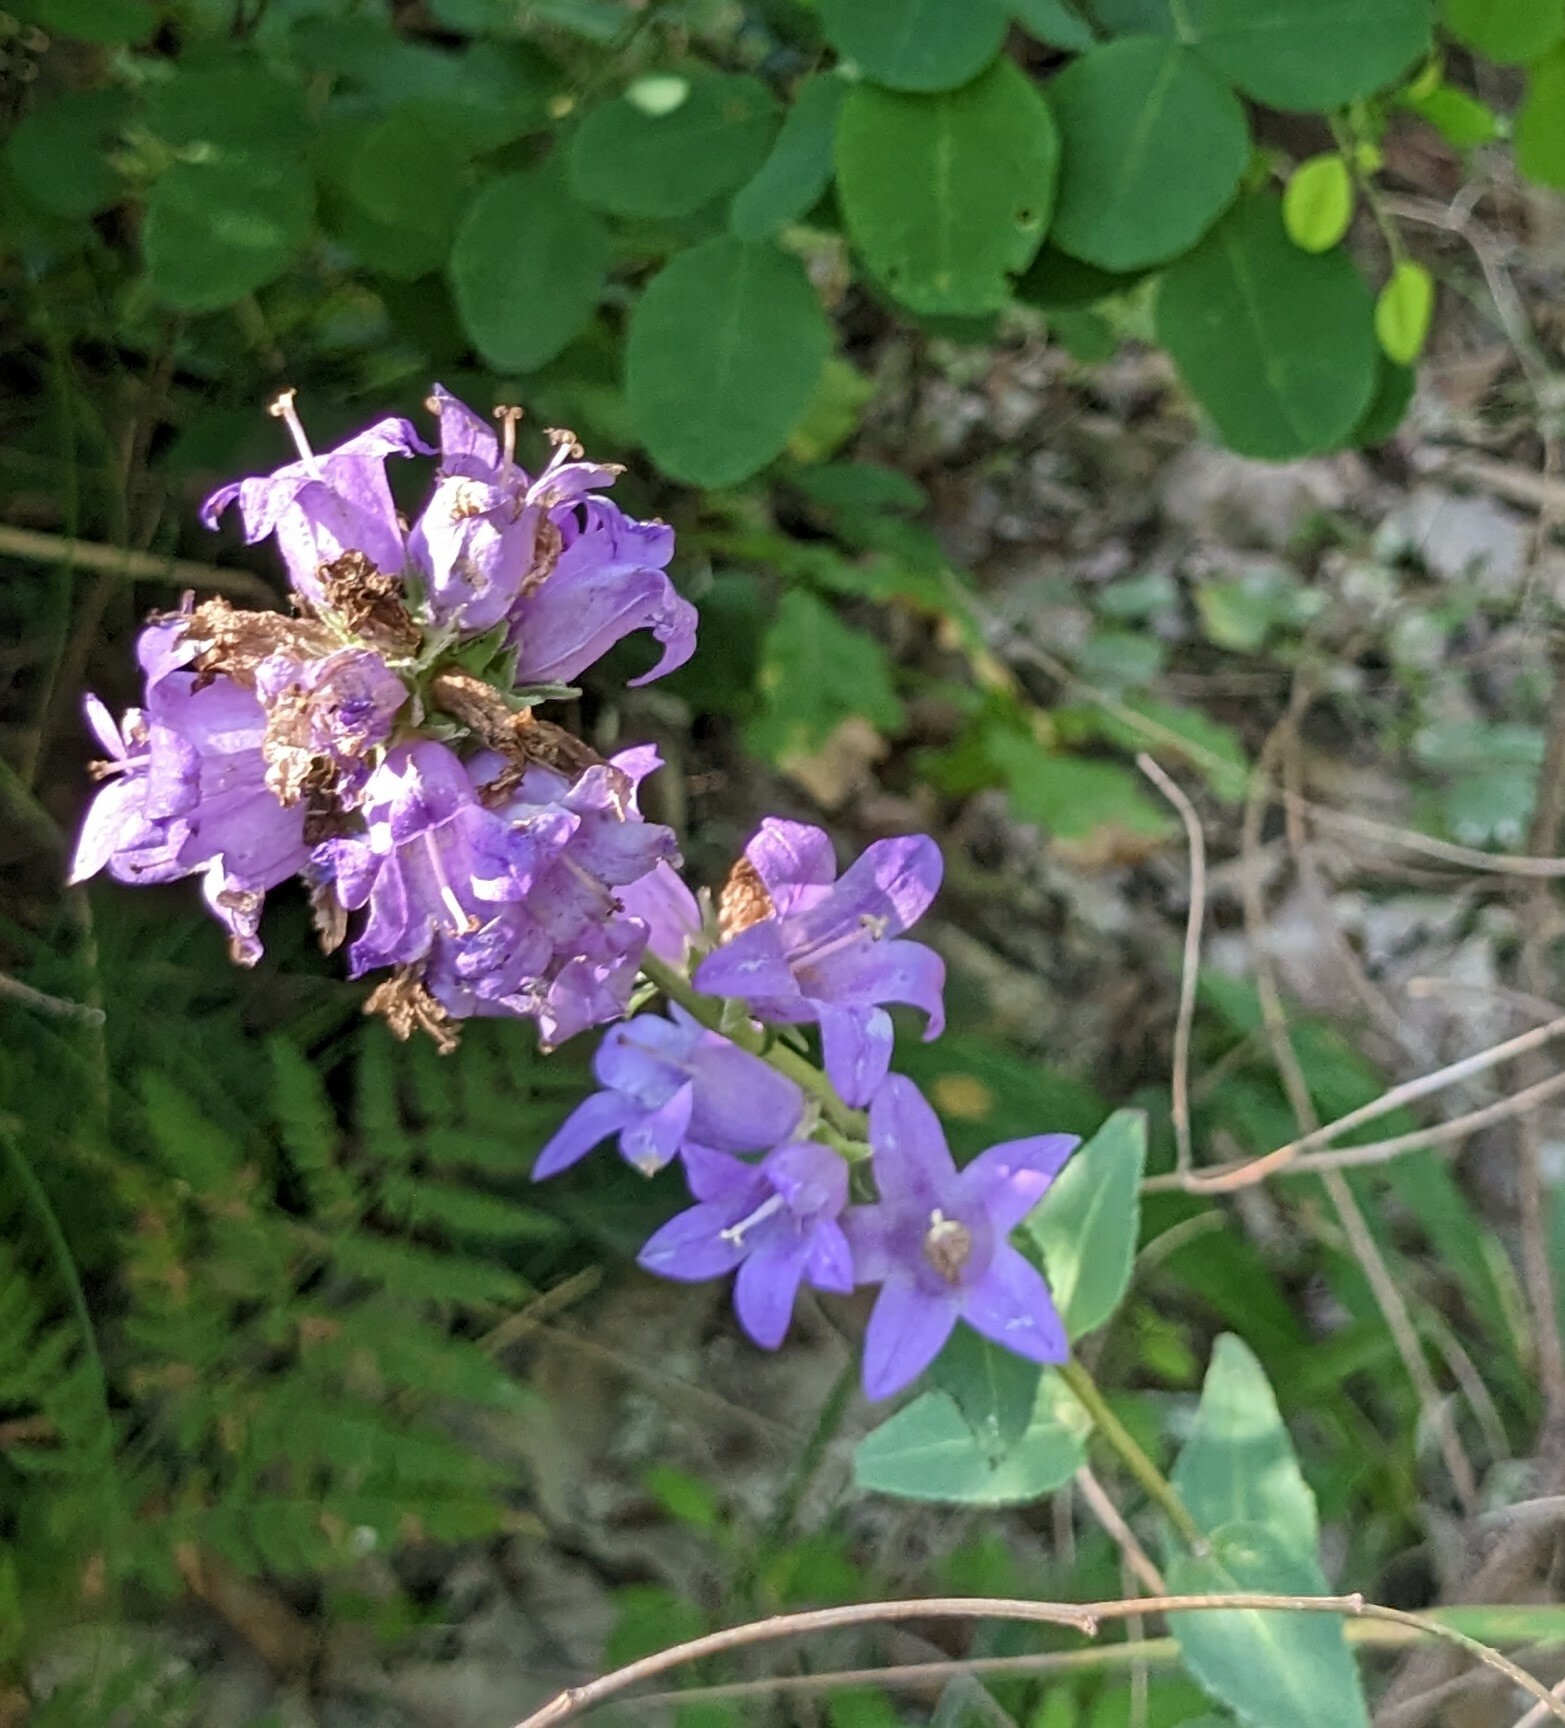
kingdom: Plantae
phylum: Tracheophyta
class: Magnoliopsida
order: Asterales
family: Campanulaceae
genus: Campanula
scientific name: Campanula glomerata
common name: Clustered bellflower
